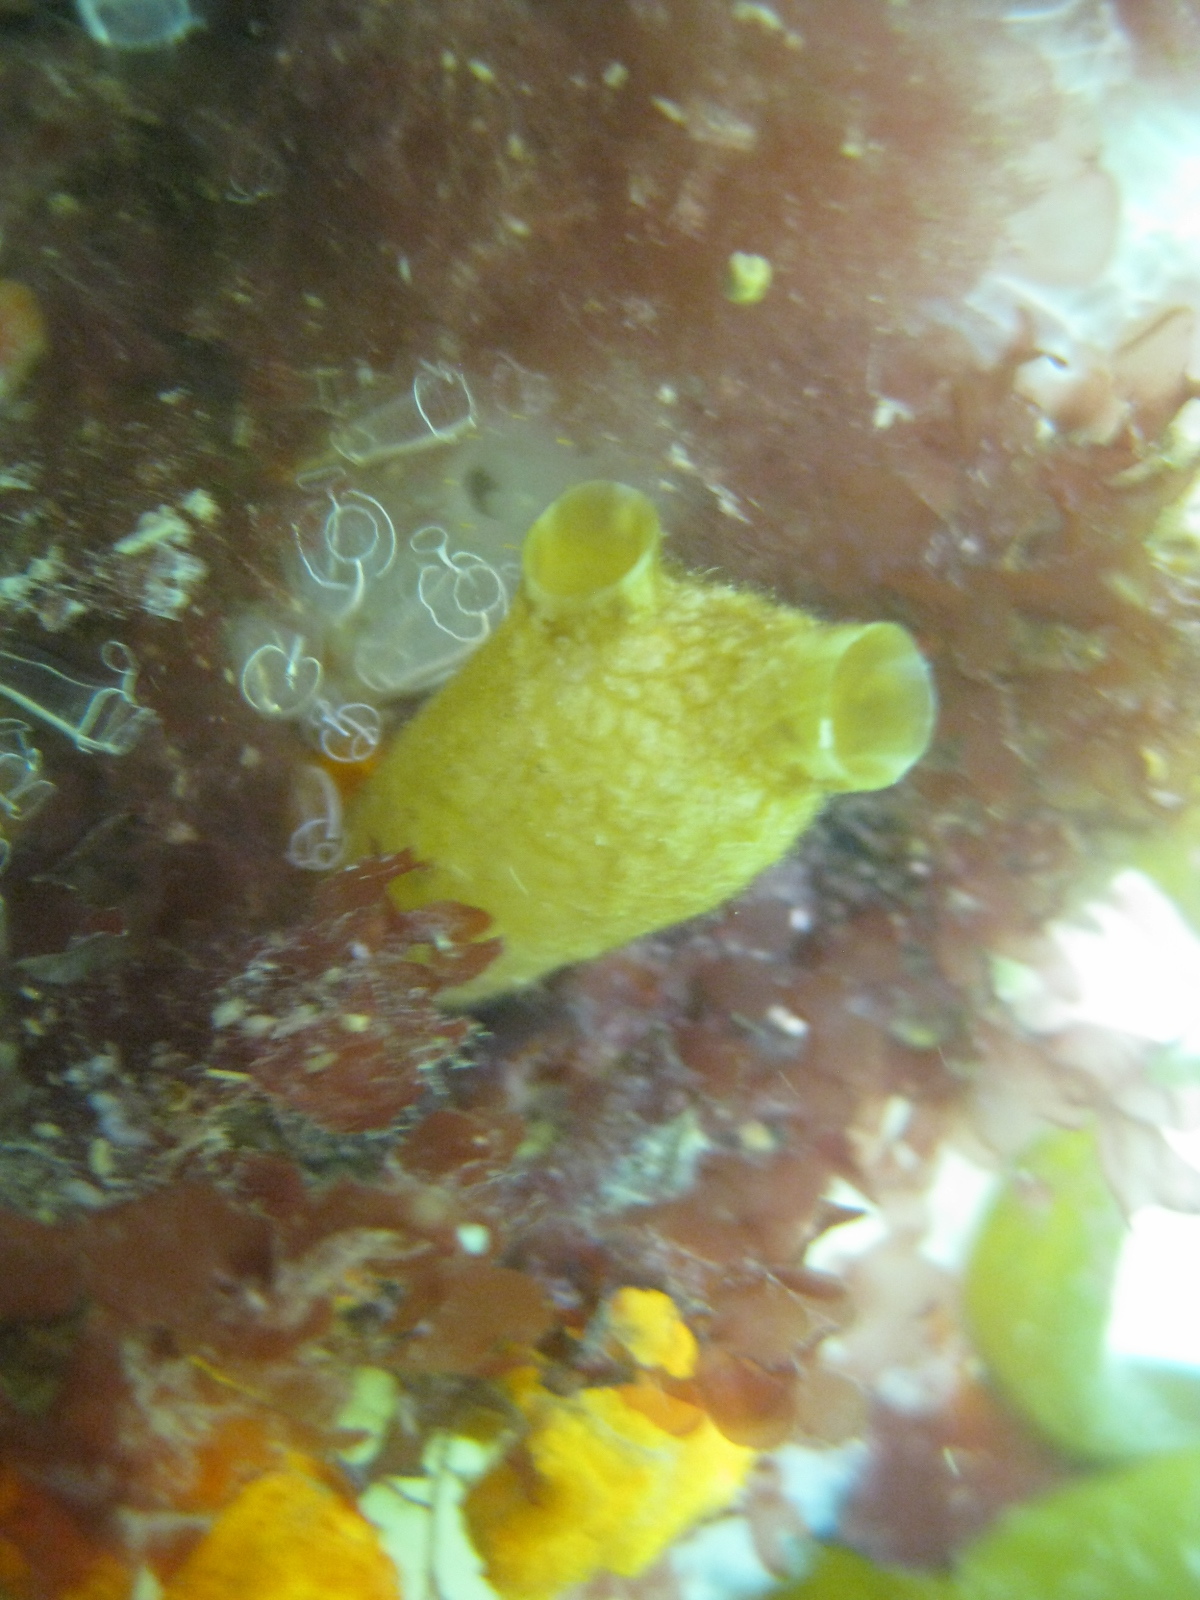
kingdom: Animalia
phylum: Chordata
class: Ascidiacea
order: Stolidobranchia
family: Styelidae
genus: Styela
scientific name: Styela clava
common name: Leathery sea squirt
